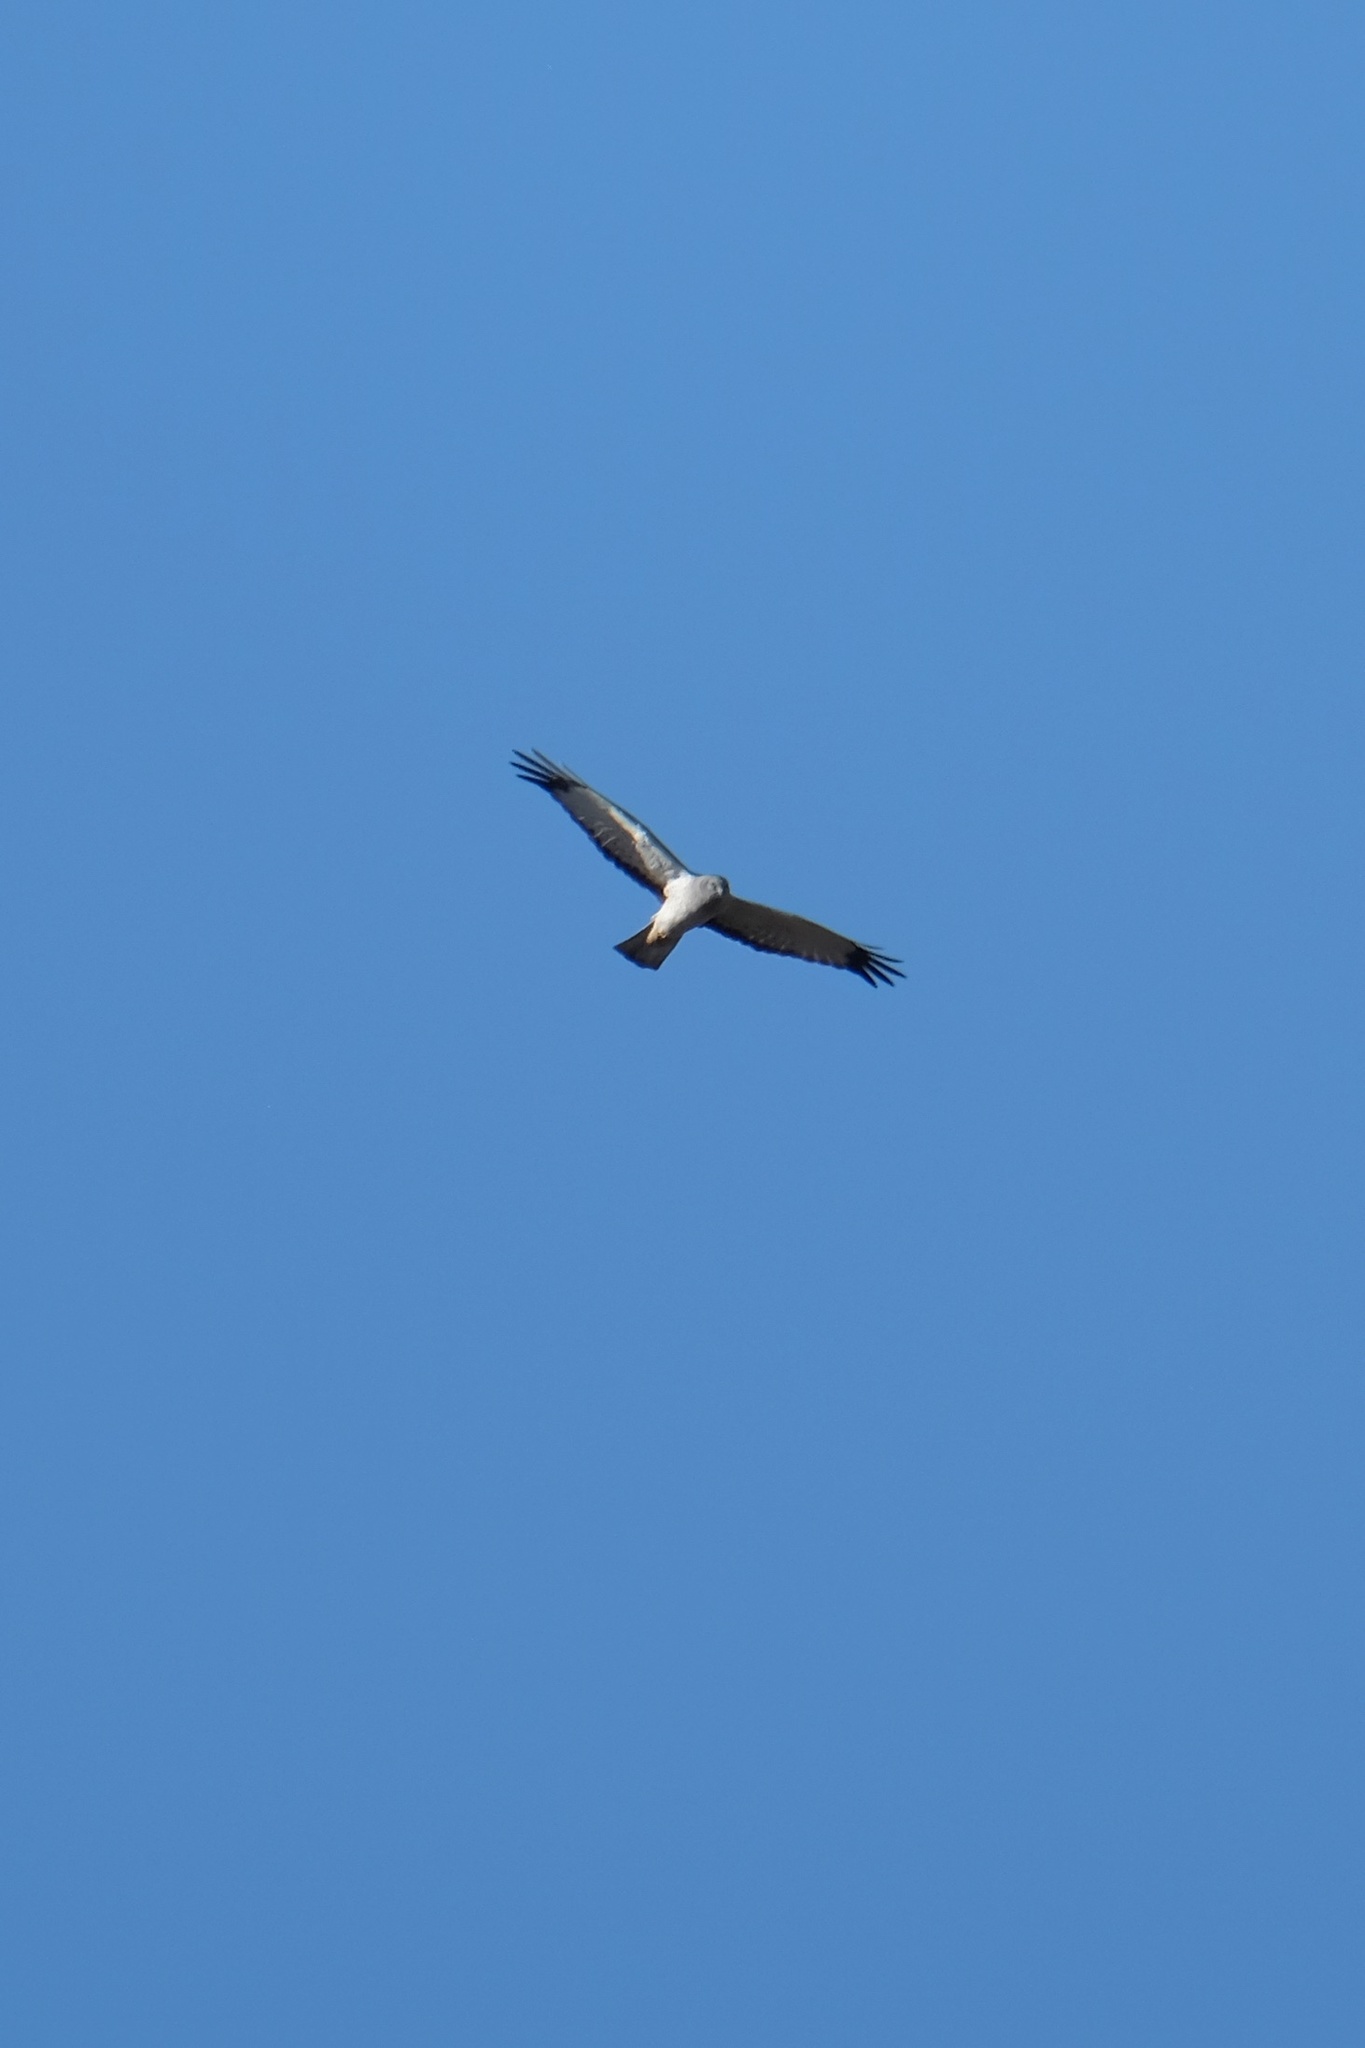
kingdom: Animalia
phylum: Chordata
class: Aves
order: Accipitriformes
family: Accipitridae
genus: Circus
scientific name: Circus cyaneus
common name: Hen harrier
